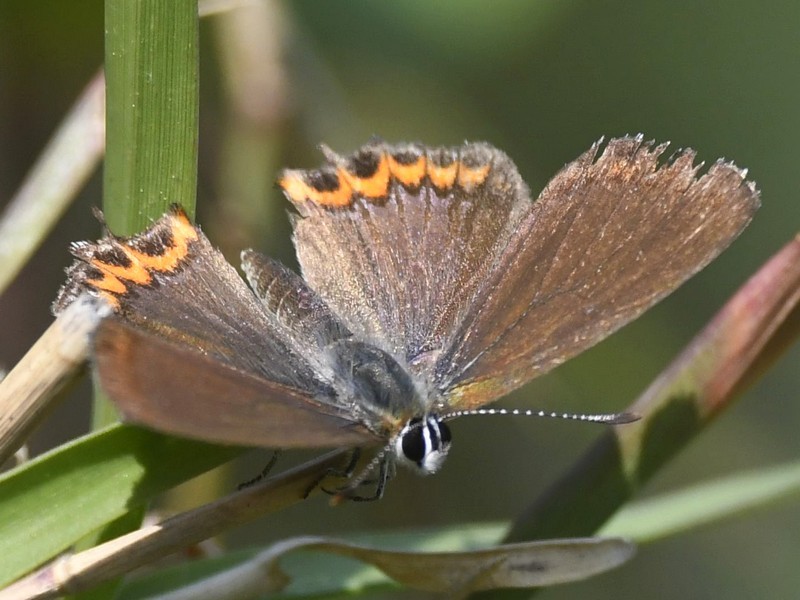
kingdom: Animalia
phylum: Arthropoda
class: Insecta
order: Lepidoptera
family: Lycaenidae
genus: Heliophorus
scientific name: Heliophorus sena
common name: Sorrel sapphire
